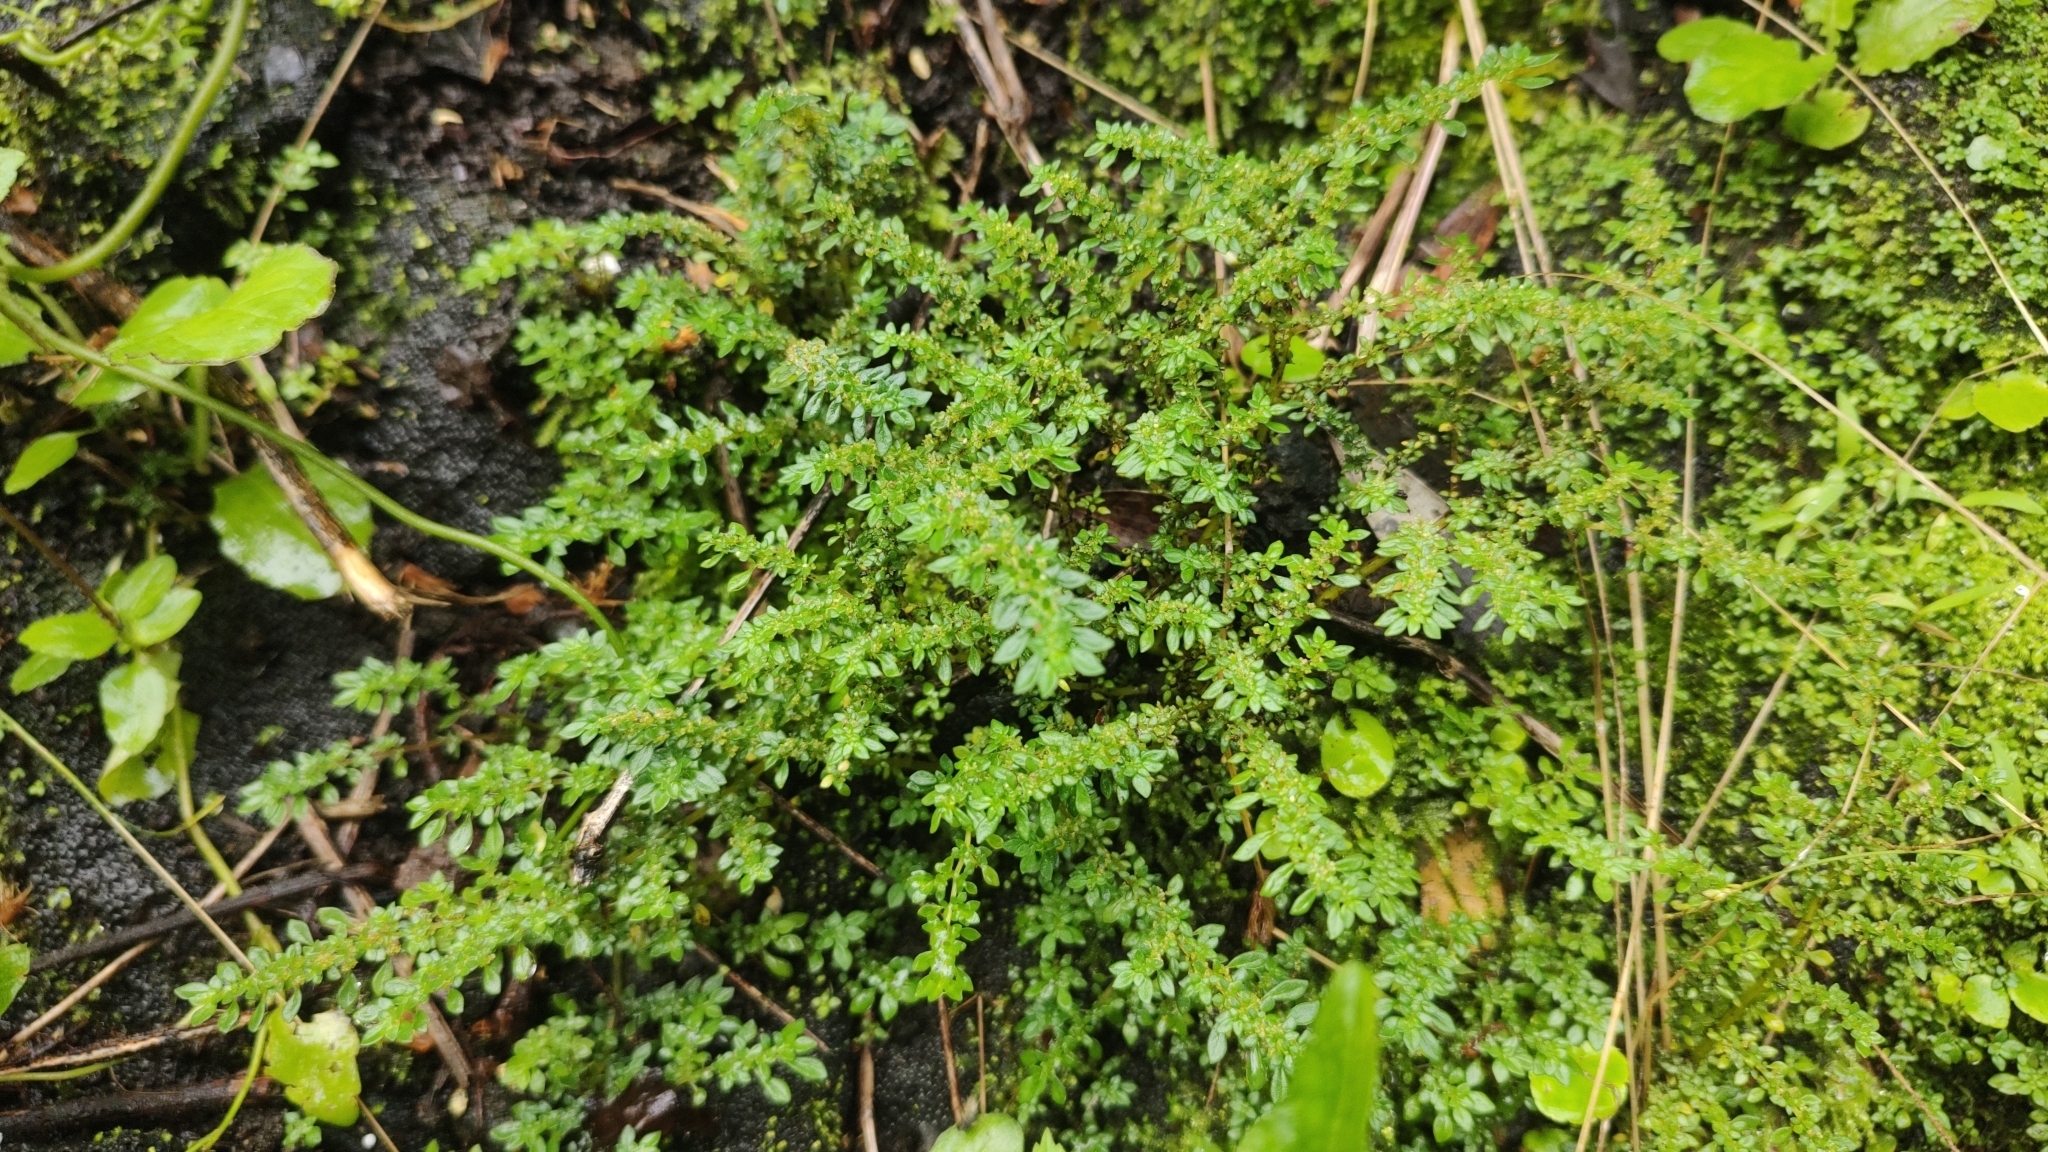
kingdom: Plantae
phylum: Tracheophyta
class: Magnoliopsida
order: Rosales
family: Urticaceae
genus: Pilea
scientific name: Pilea microphylla
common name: Artillery-plant
